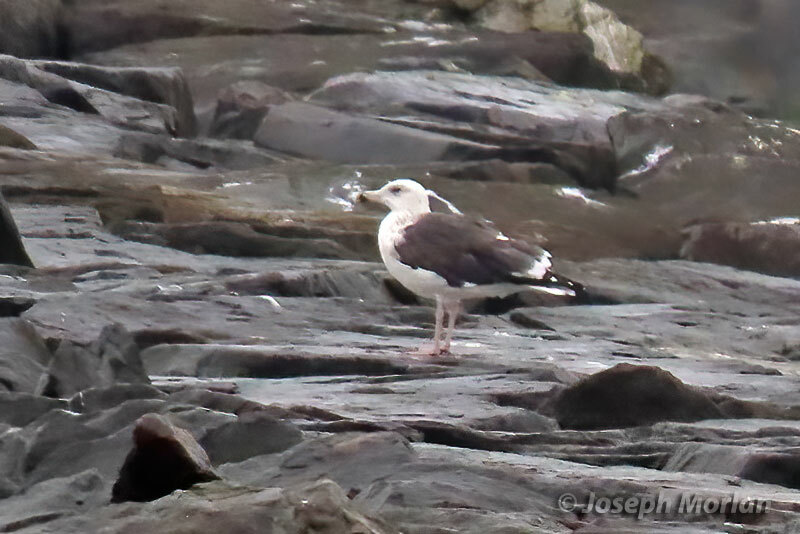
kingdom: Animalia
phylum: Chordata
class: Aves
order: Charadriiformes
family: Laridae
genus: Larus
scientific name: Larus marinus
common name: Great black-backed gull
